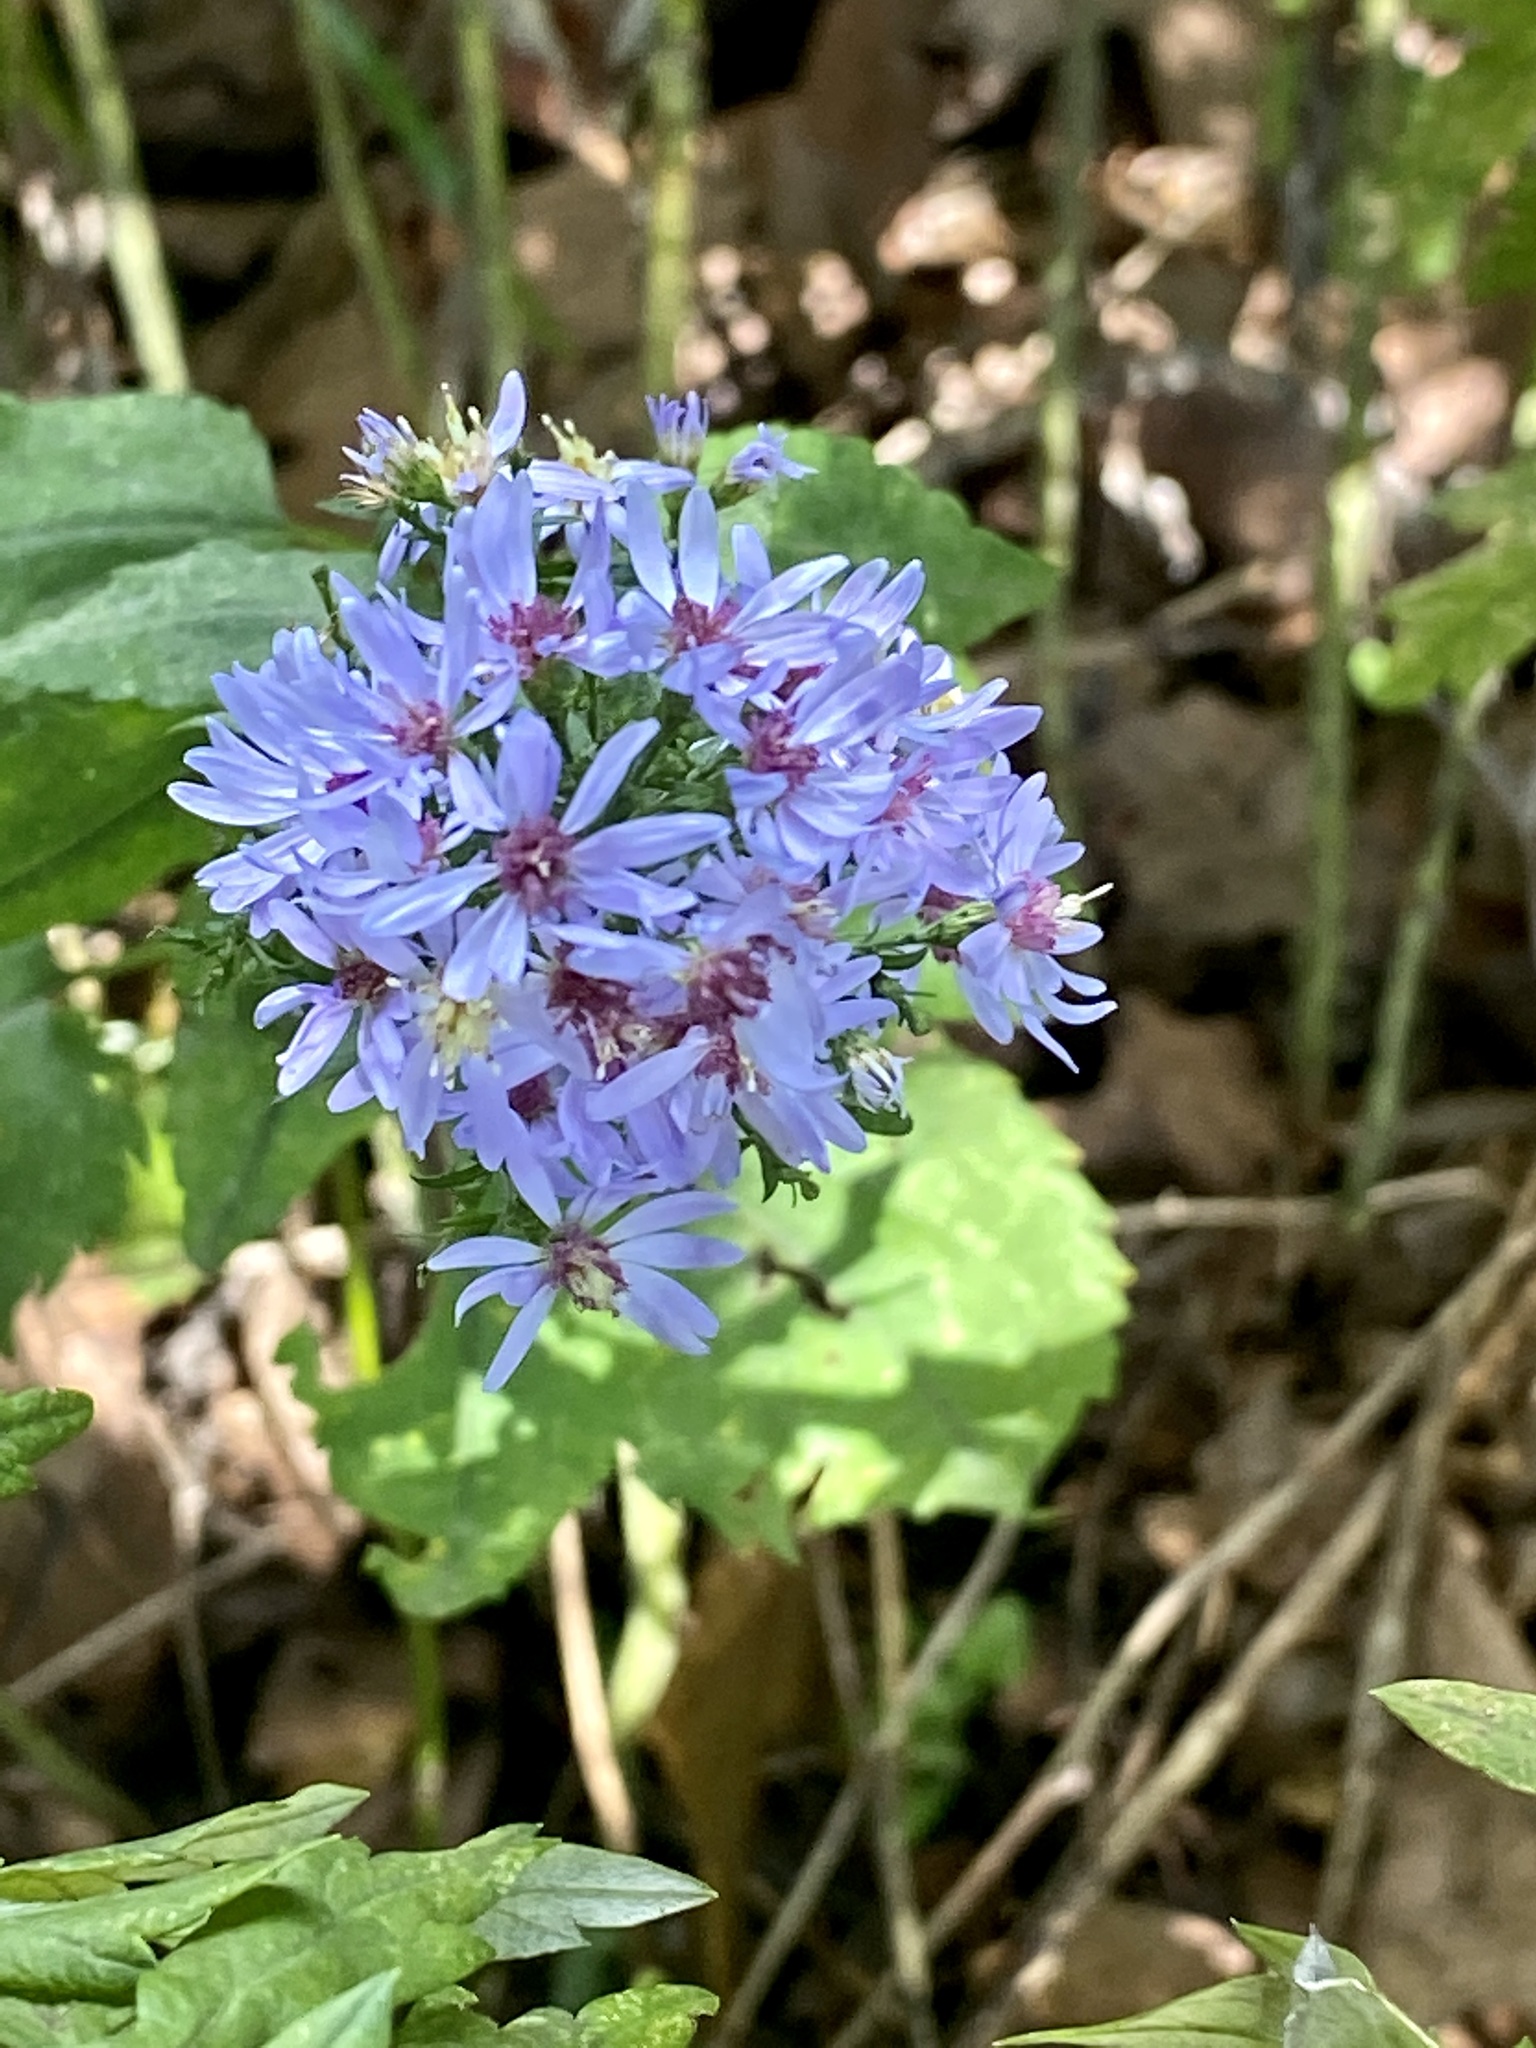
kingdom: Plantae
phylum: Tracheophyta
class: Magnoliopsida
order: Asterales
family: Asteraceae
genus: Symphyotrichum
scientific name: Symphyotrichum cordifolium
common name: Beeweed
